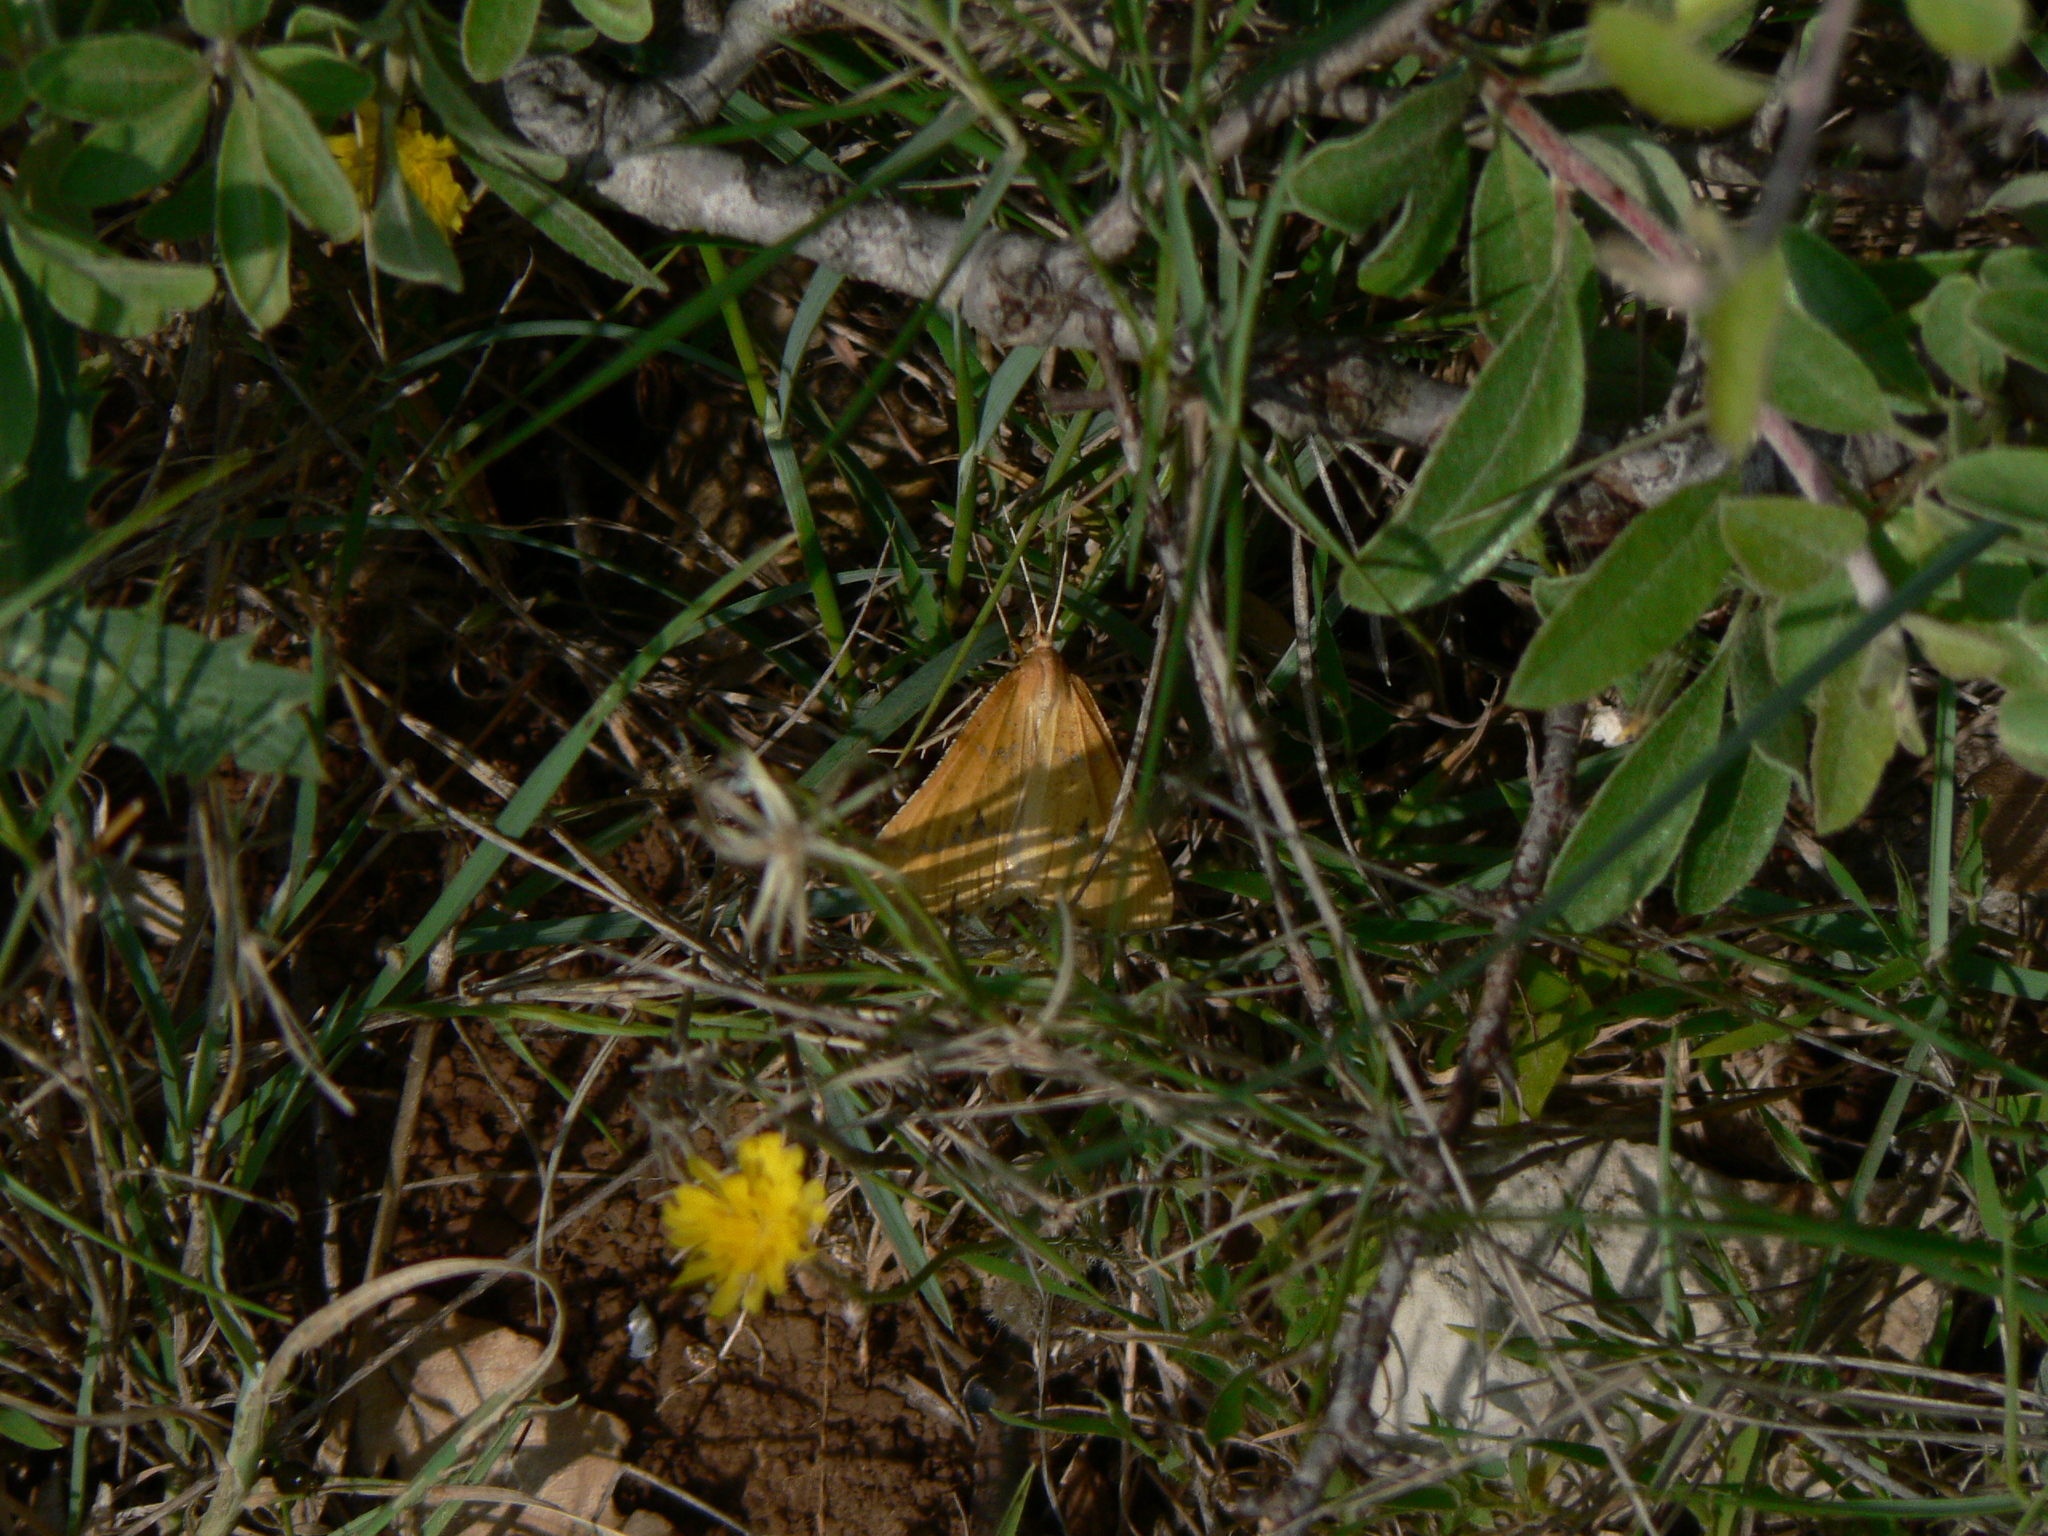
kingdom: Animalia
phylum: Arthropoda
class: Insecta
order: Lepidoptera
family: Geometridae
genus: Aspitates
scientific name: Aspitates ochrearia
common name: Yellow belle
